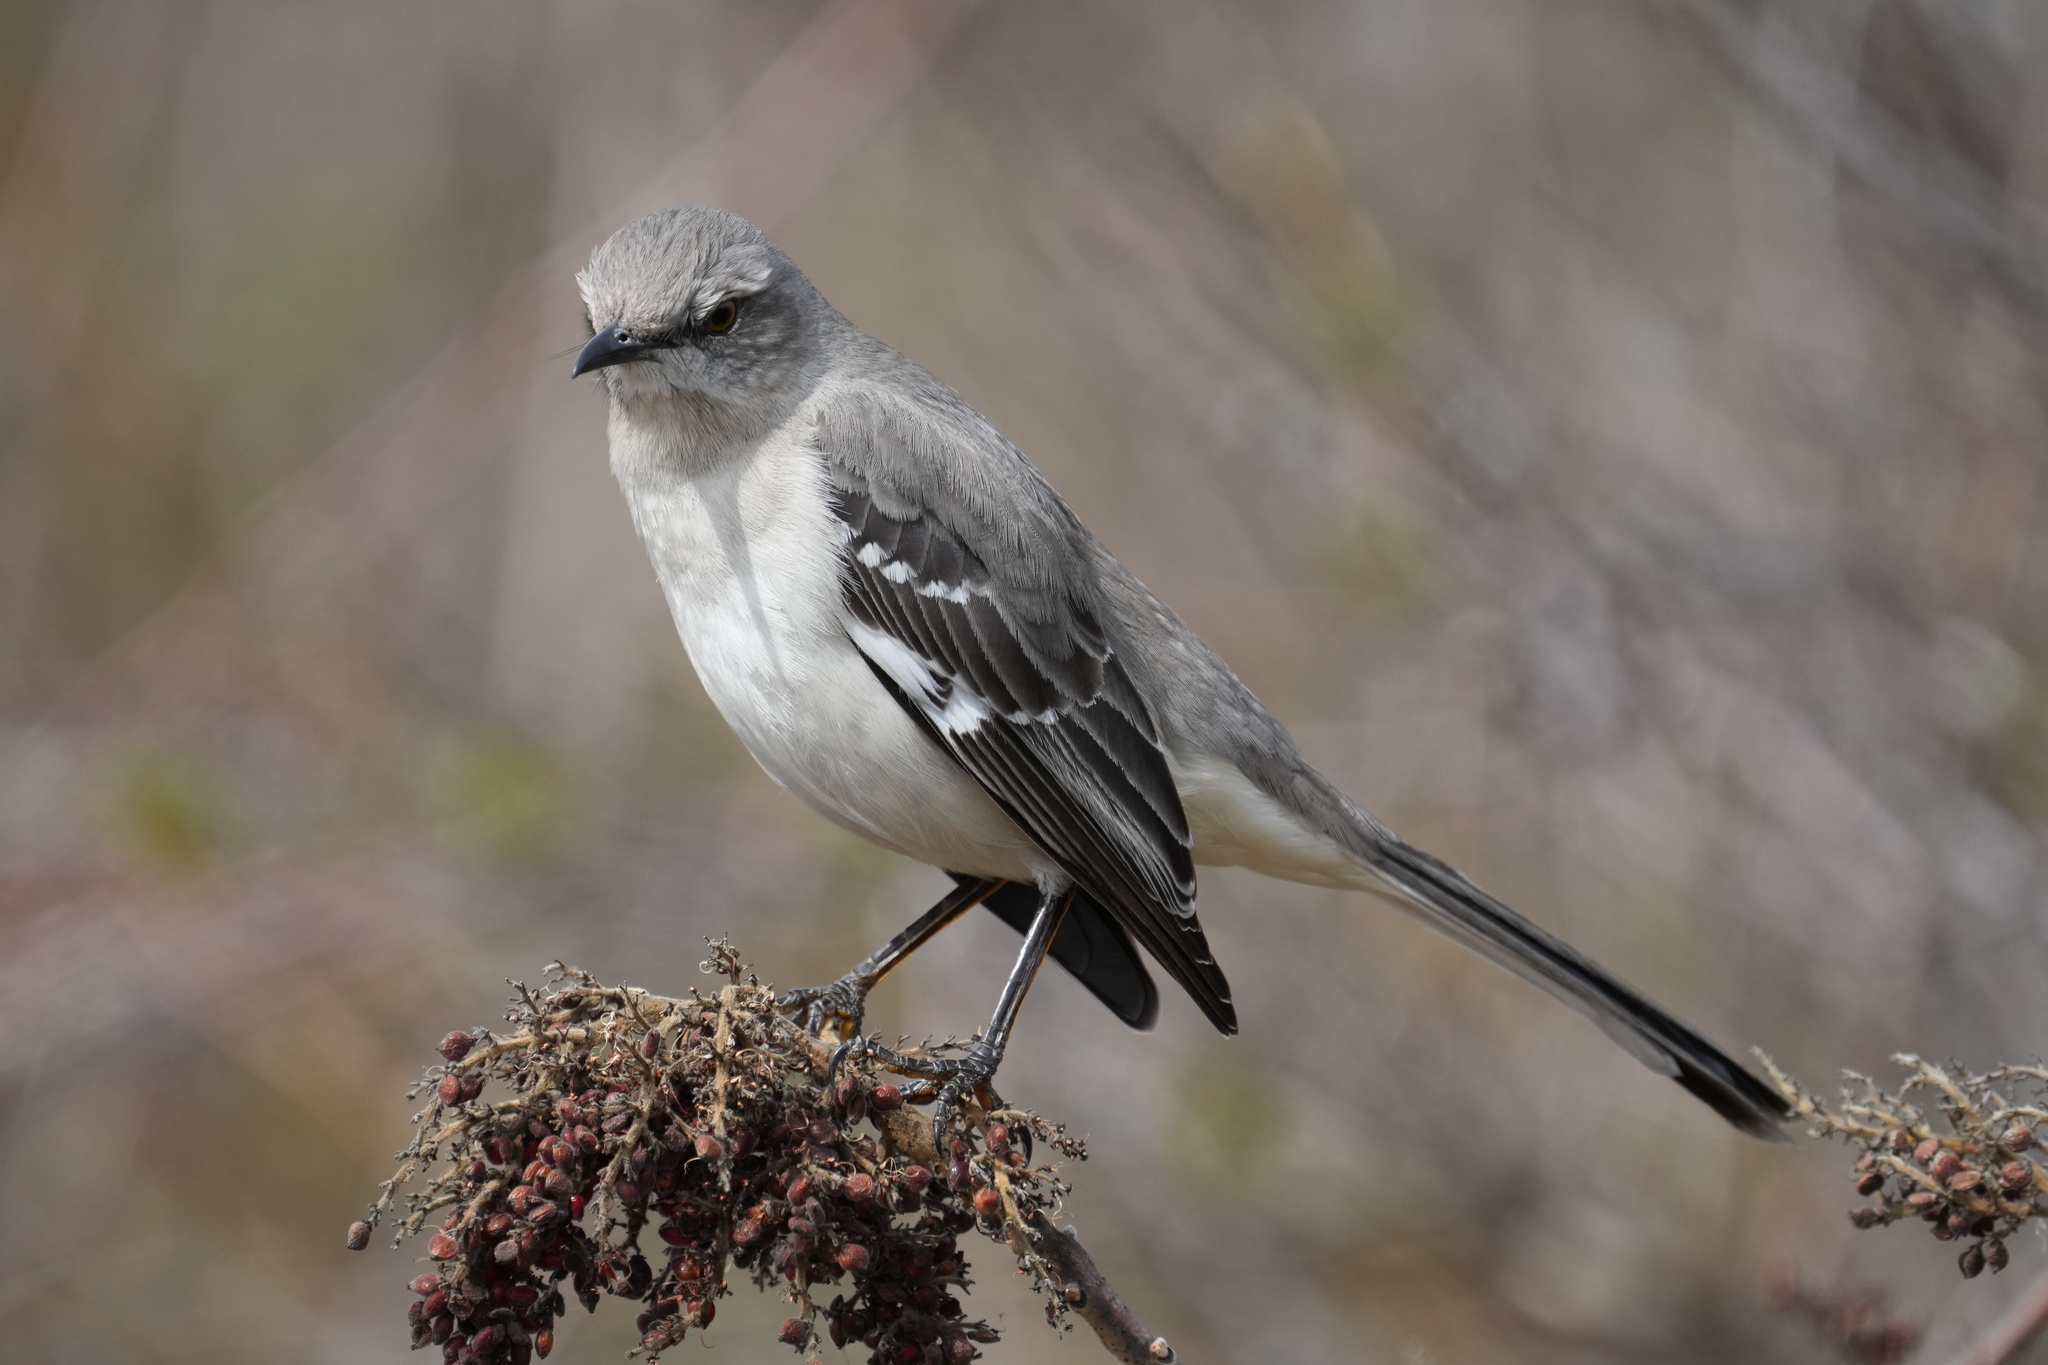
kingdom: Animalia
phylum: Chordata
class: Aves
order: Passeriformes
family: Mimidae
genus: Mimus
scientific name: Mimus polyglottos
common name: Northern mockingbird
